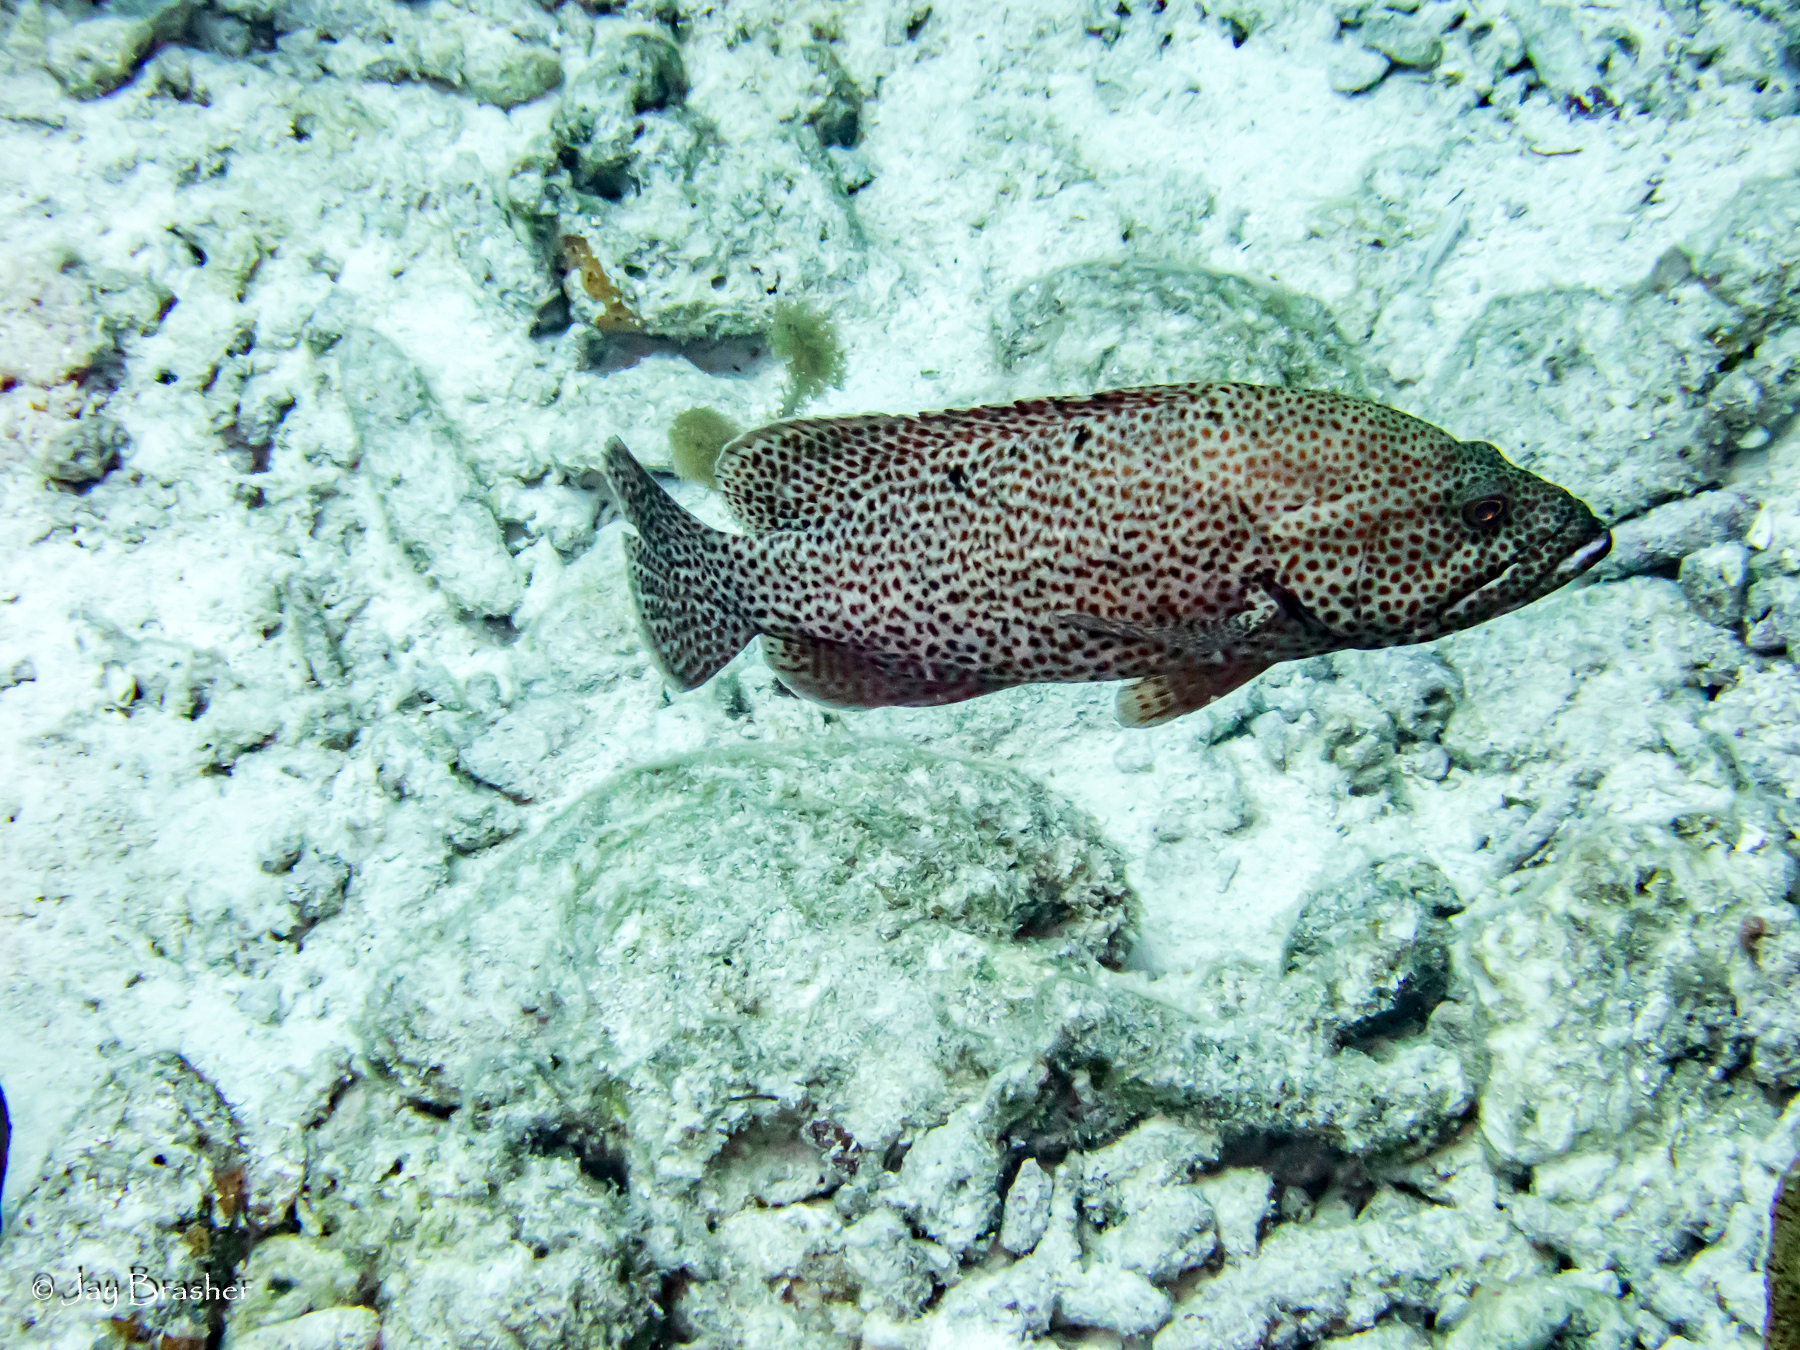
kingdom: Animalia
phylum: Chordata
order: Perciformes
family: Serranidae
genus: Cephalopholis
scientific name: Cephalopholis cruentata
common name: Graysby
